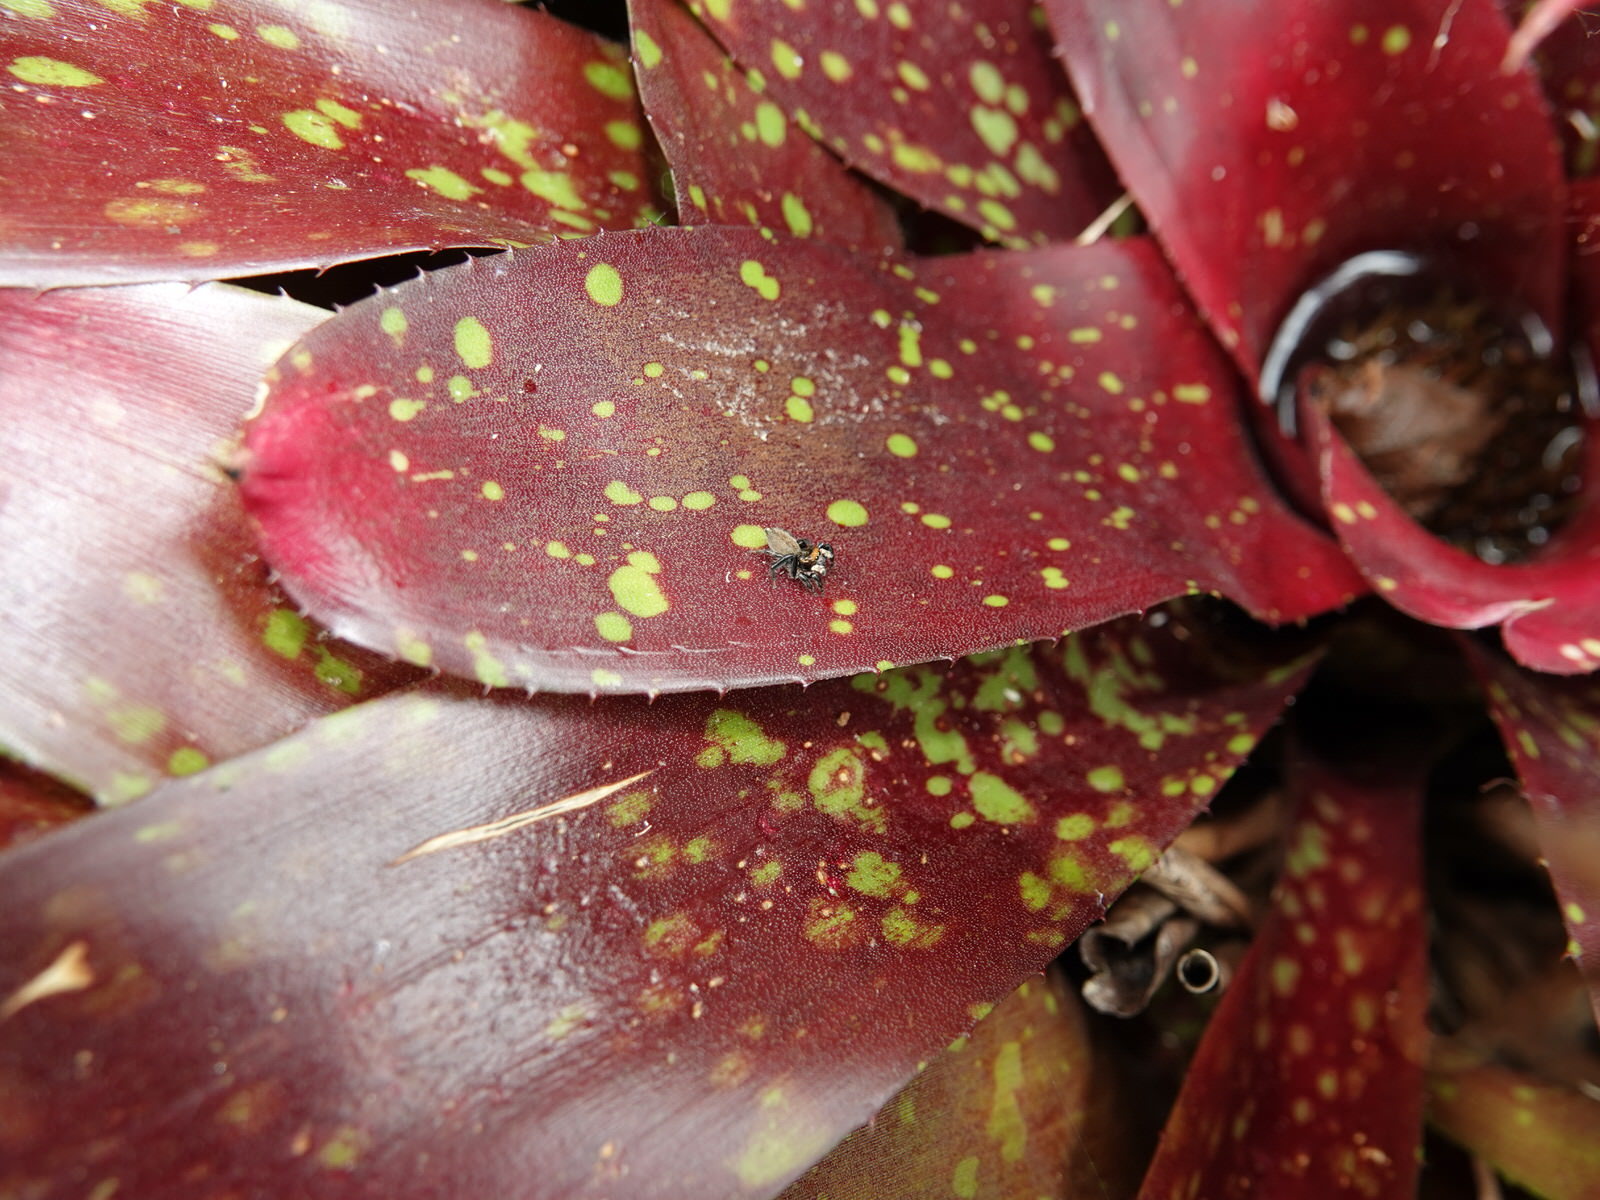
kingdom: Animalia
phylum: Arthropoda
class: Arachnida
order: Araneae
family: Salticidae
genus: Maratus
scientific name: Maratus griseus
